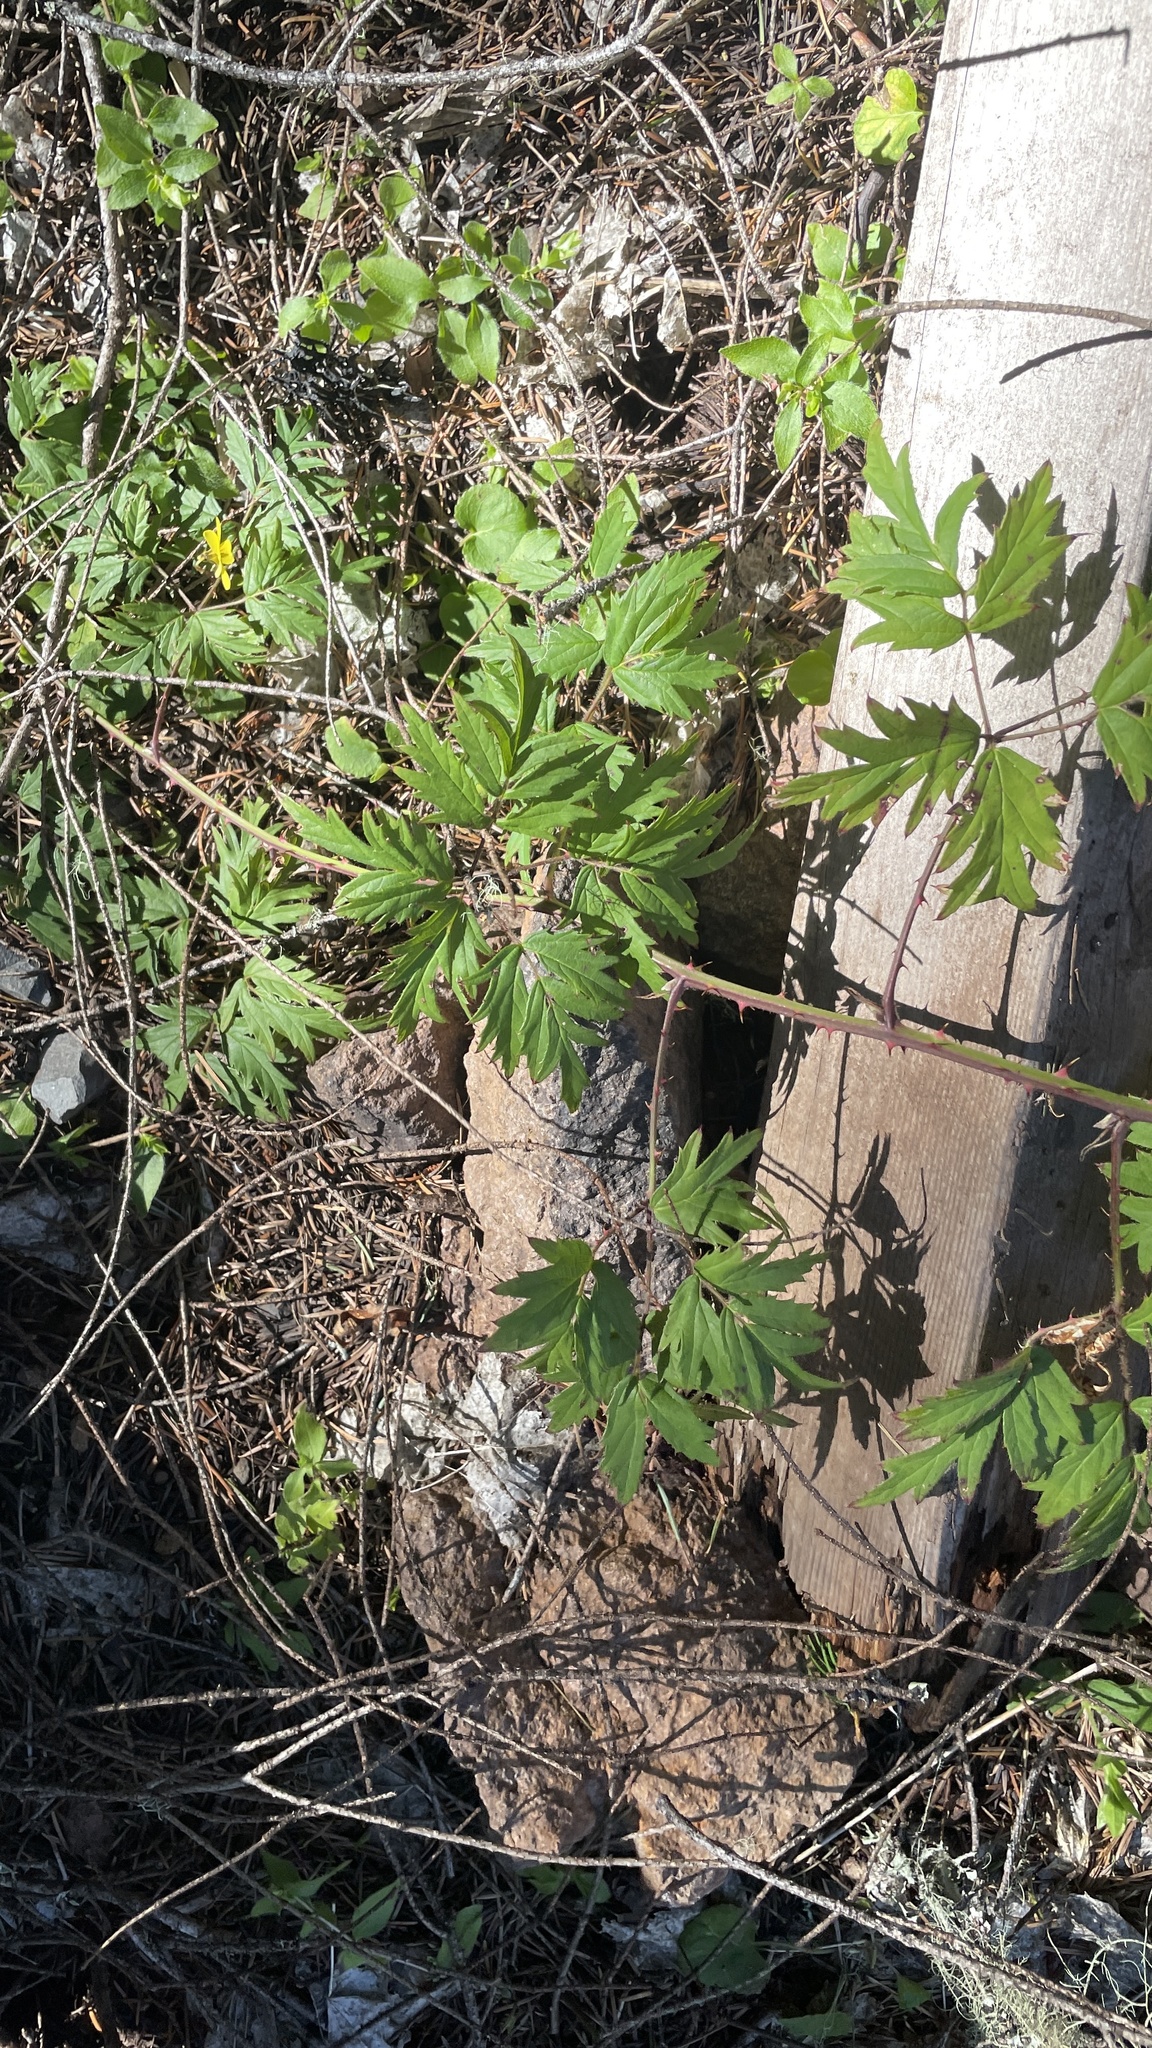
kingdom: Plantae
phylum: Tracheophyta
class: Magnoliopsida
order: Rosales
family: Rosaceae
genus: Rubus
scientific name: Rubus laciniatus
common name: Evergreen blackberry
